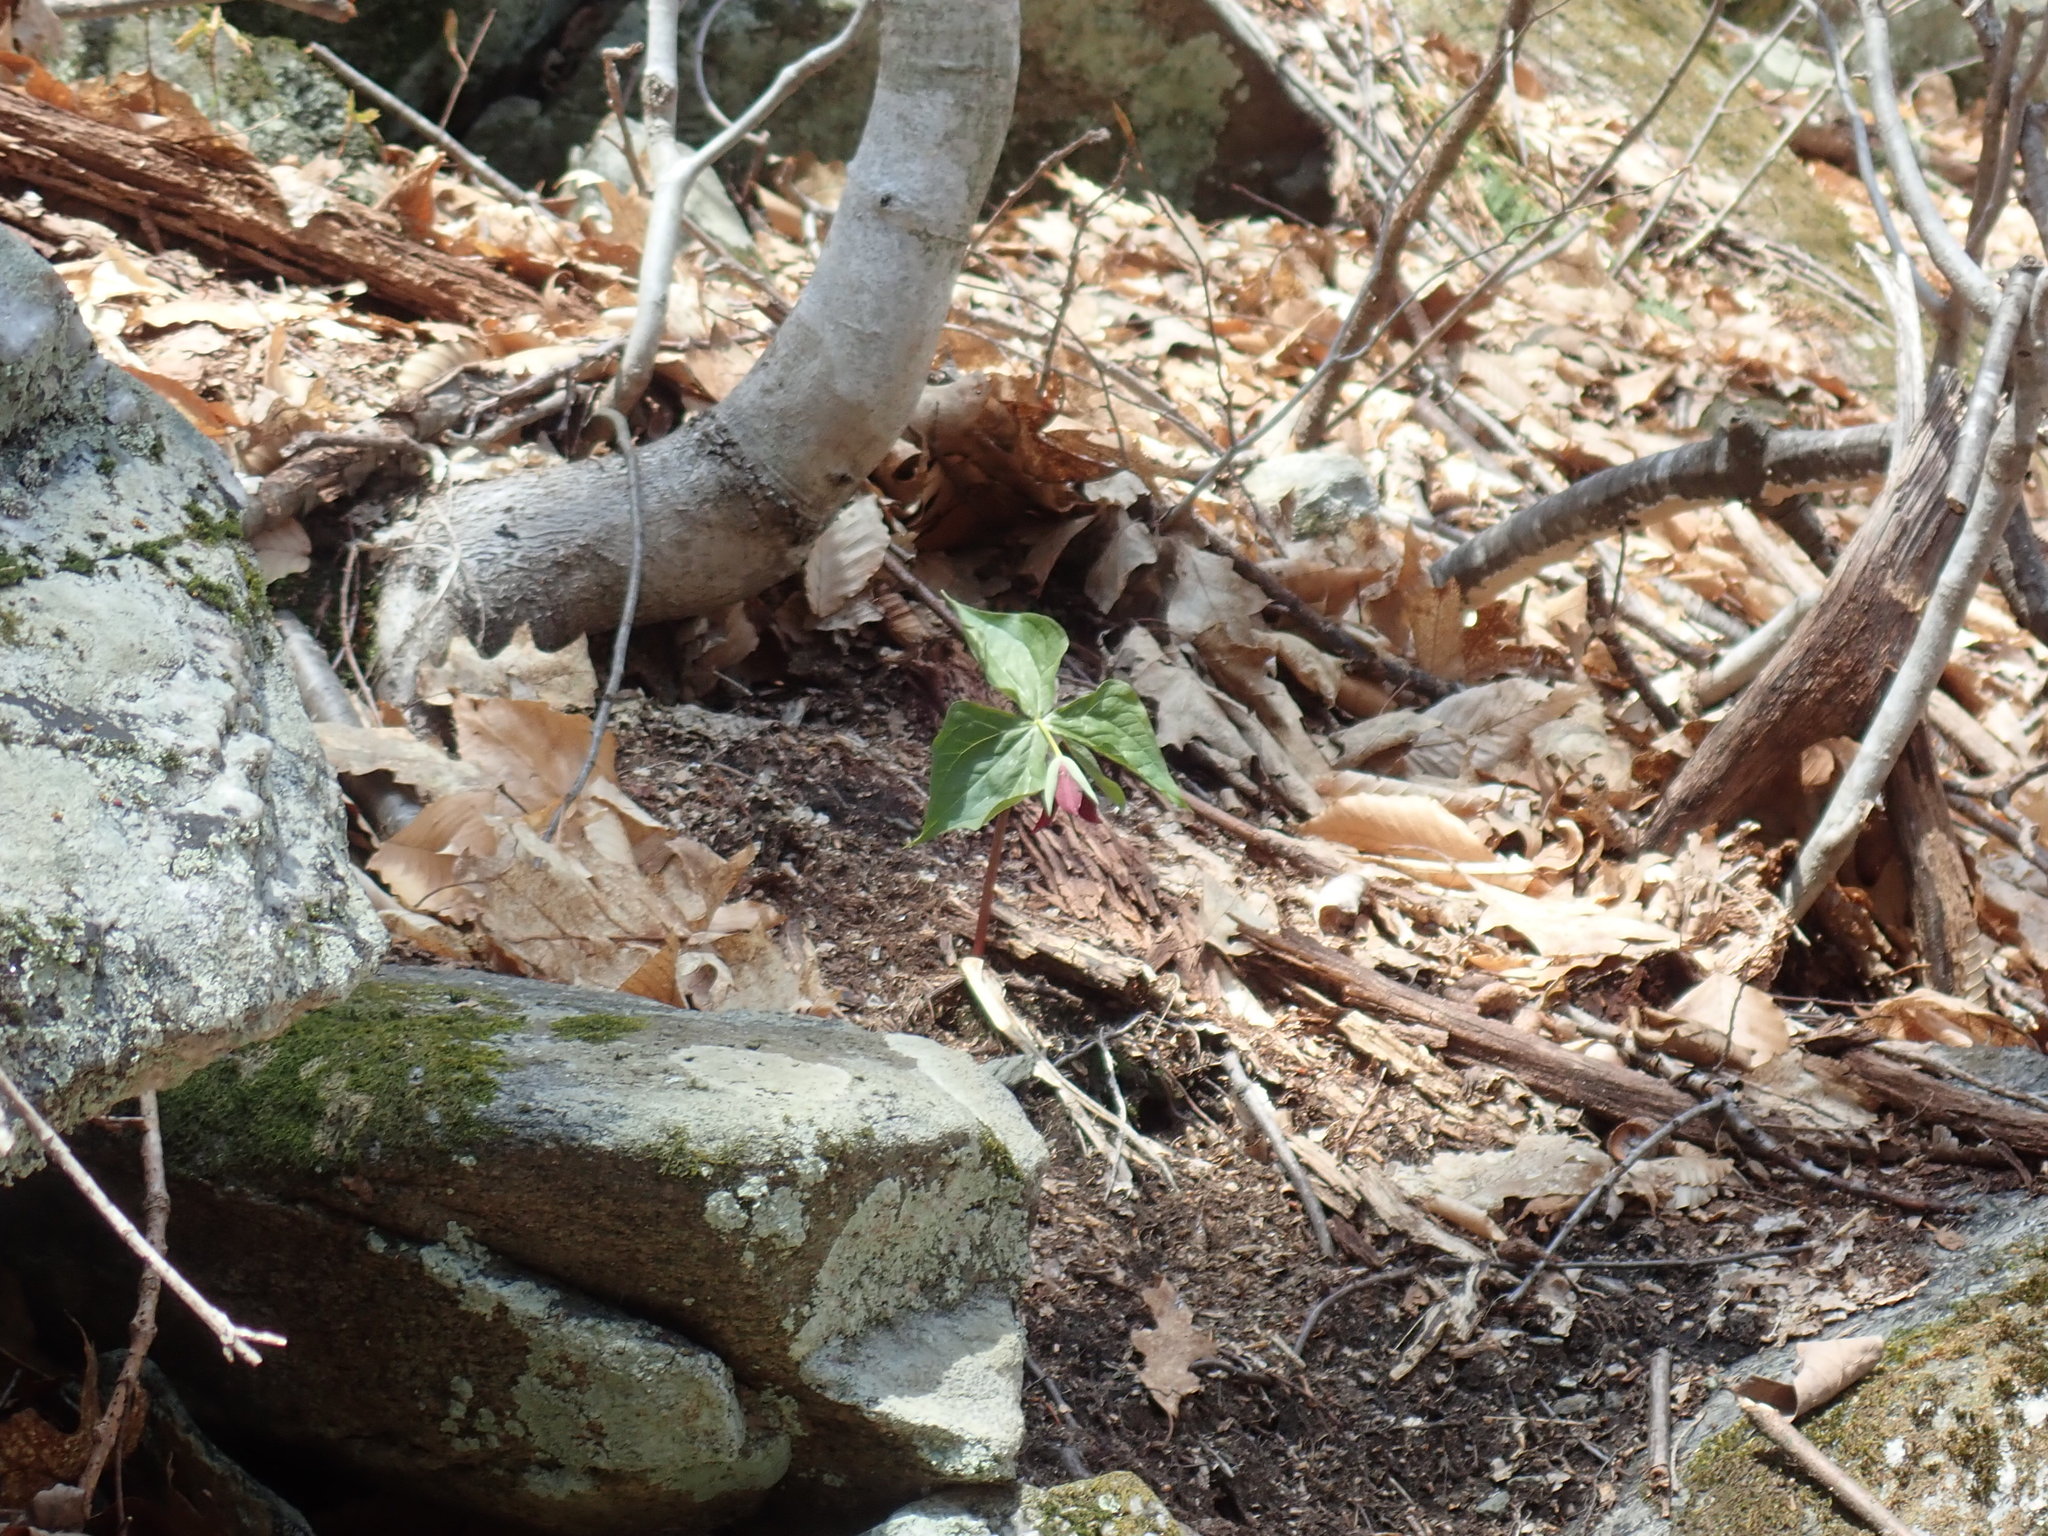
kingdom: Plantae
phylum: Tracheophyta
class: Liliopsida
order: Liliales
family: Melanthiaceae
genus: Trillium
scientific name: Trillium erectum
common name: Purple trillium
